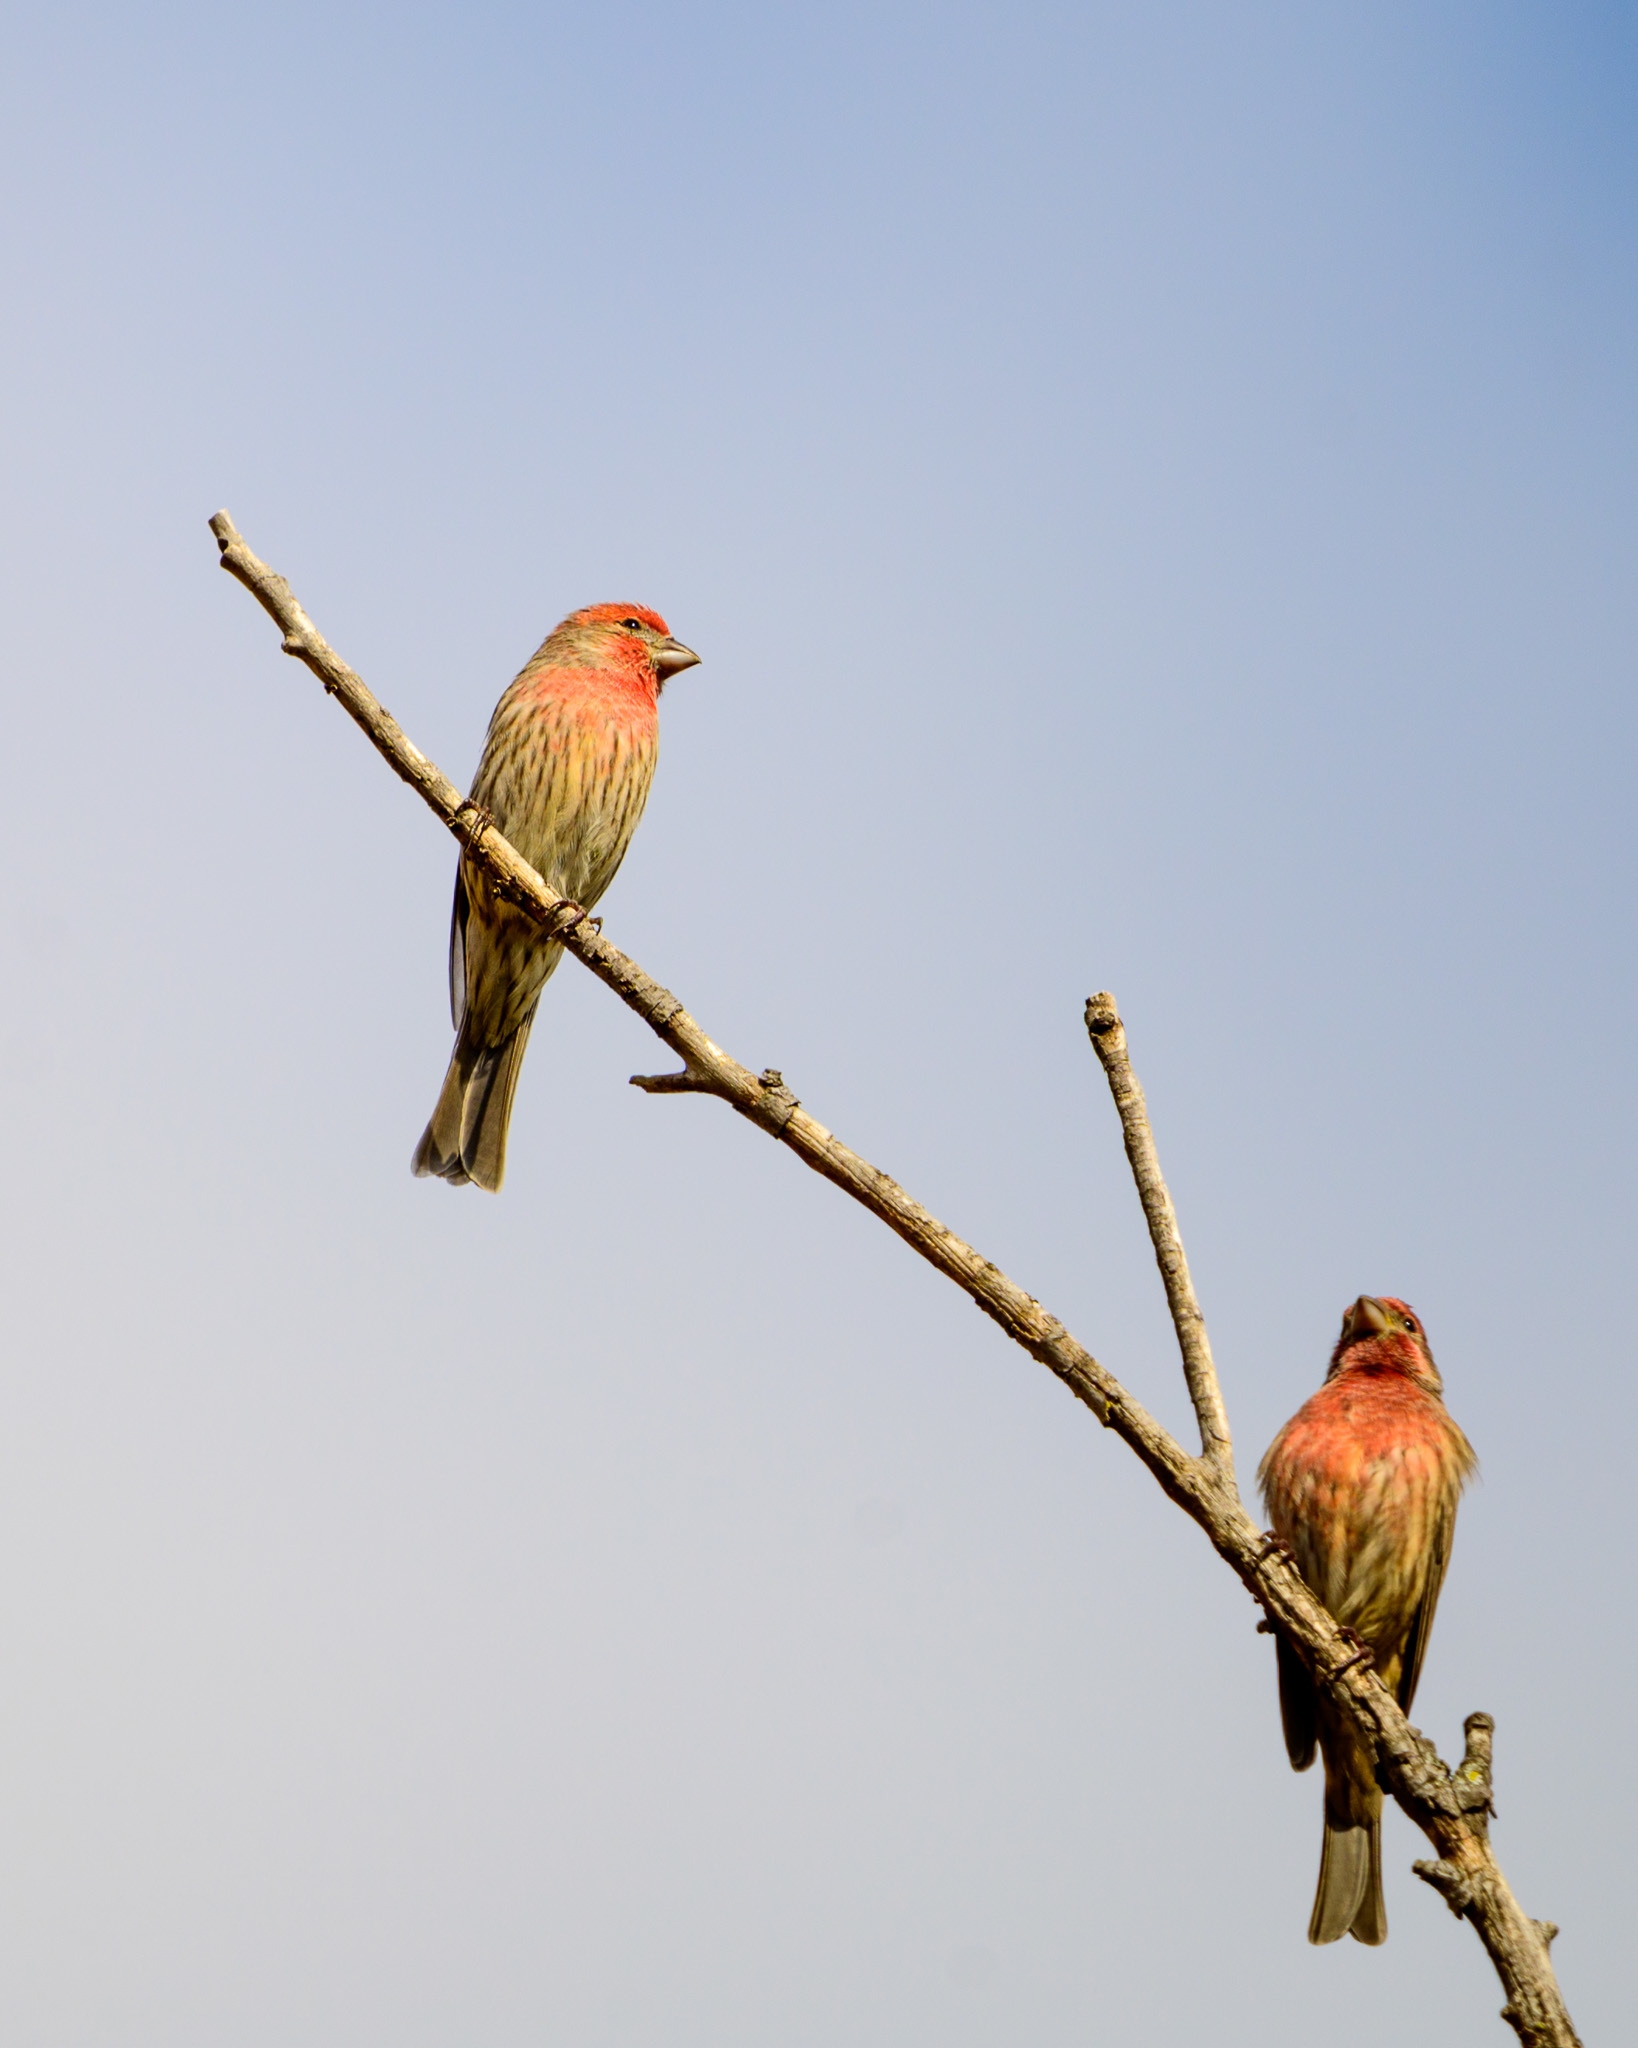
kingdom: Animalia
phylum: Chordata
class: Aves
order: Passeriformes
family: Fringillidae
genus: Haemorhous
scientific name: Haemorhous mexicanus
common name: House finch
